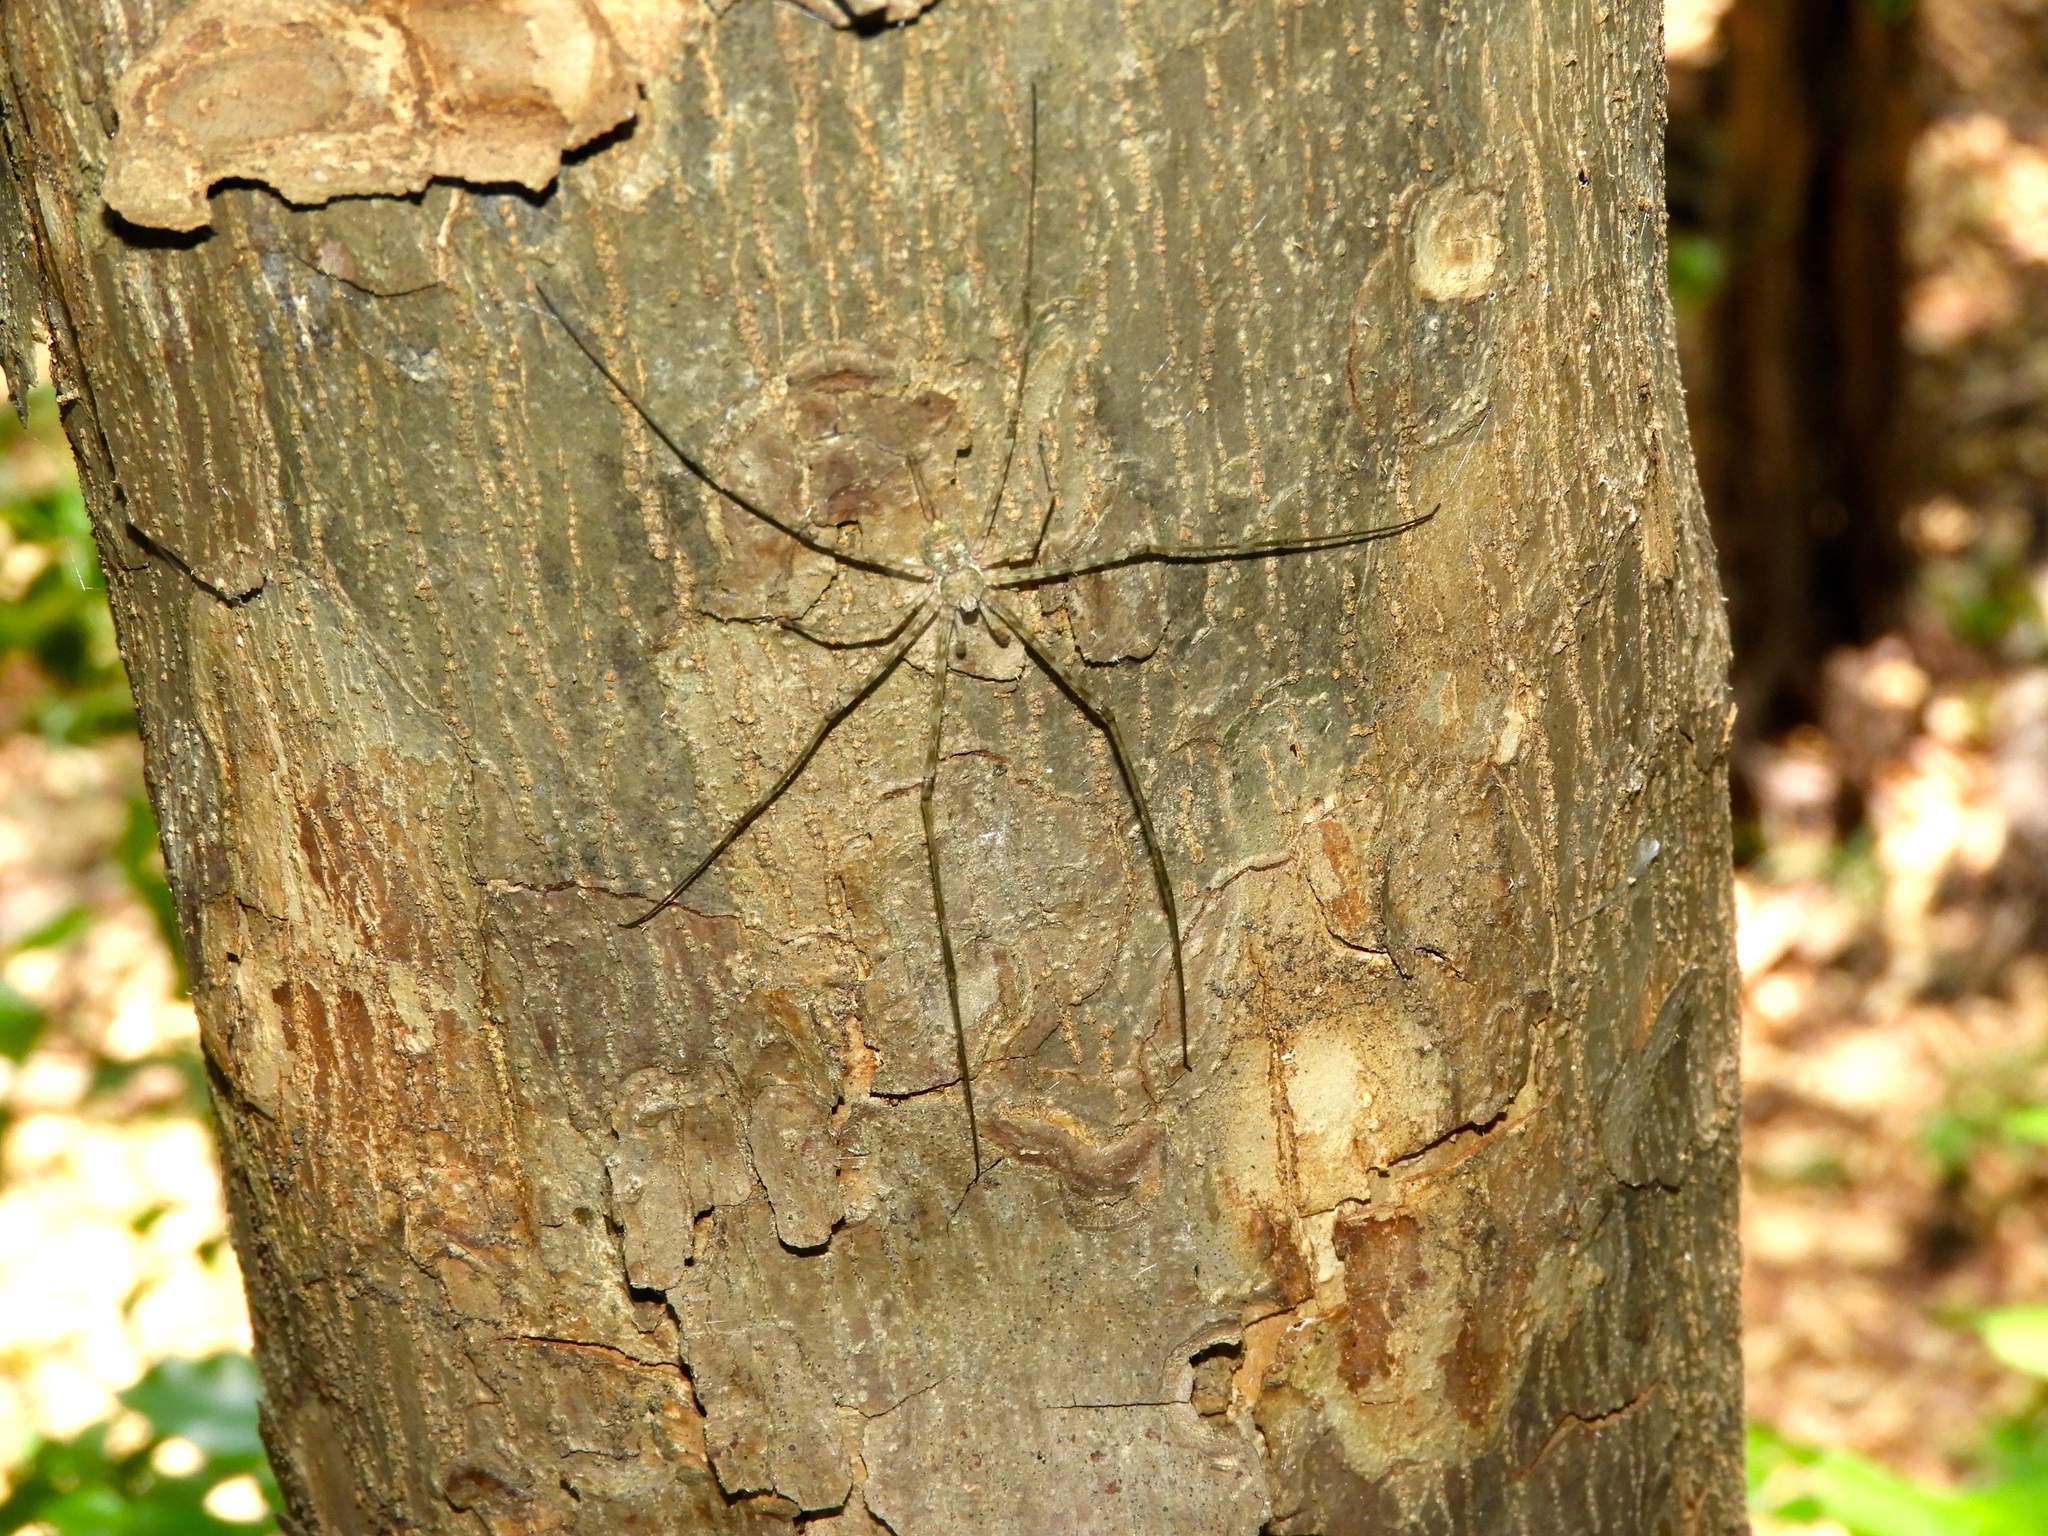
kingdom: Animalia
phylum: Arthropoda
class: Arachnida
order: Araneae
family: Hersiliidae
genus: Neotama
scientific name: Neotama mexicana
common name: Tree trunk spiders
